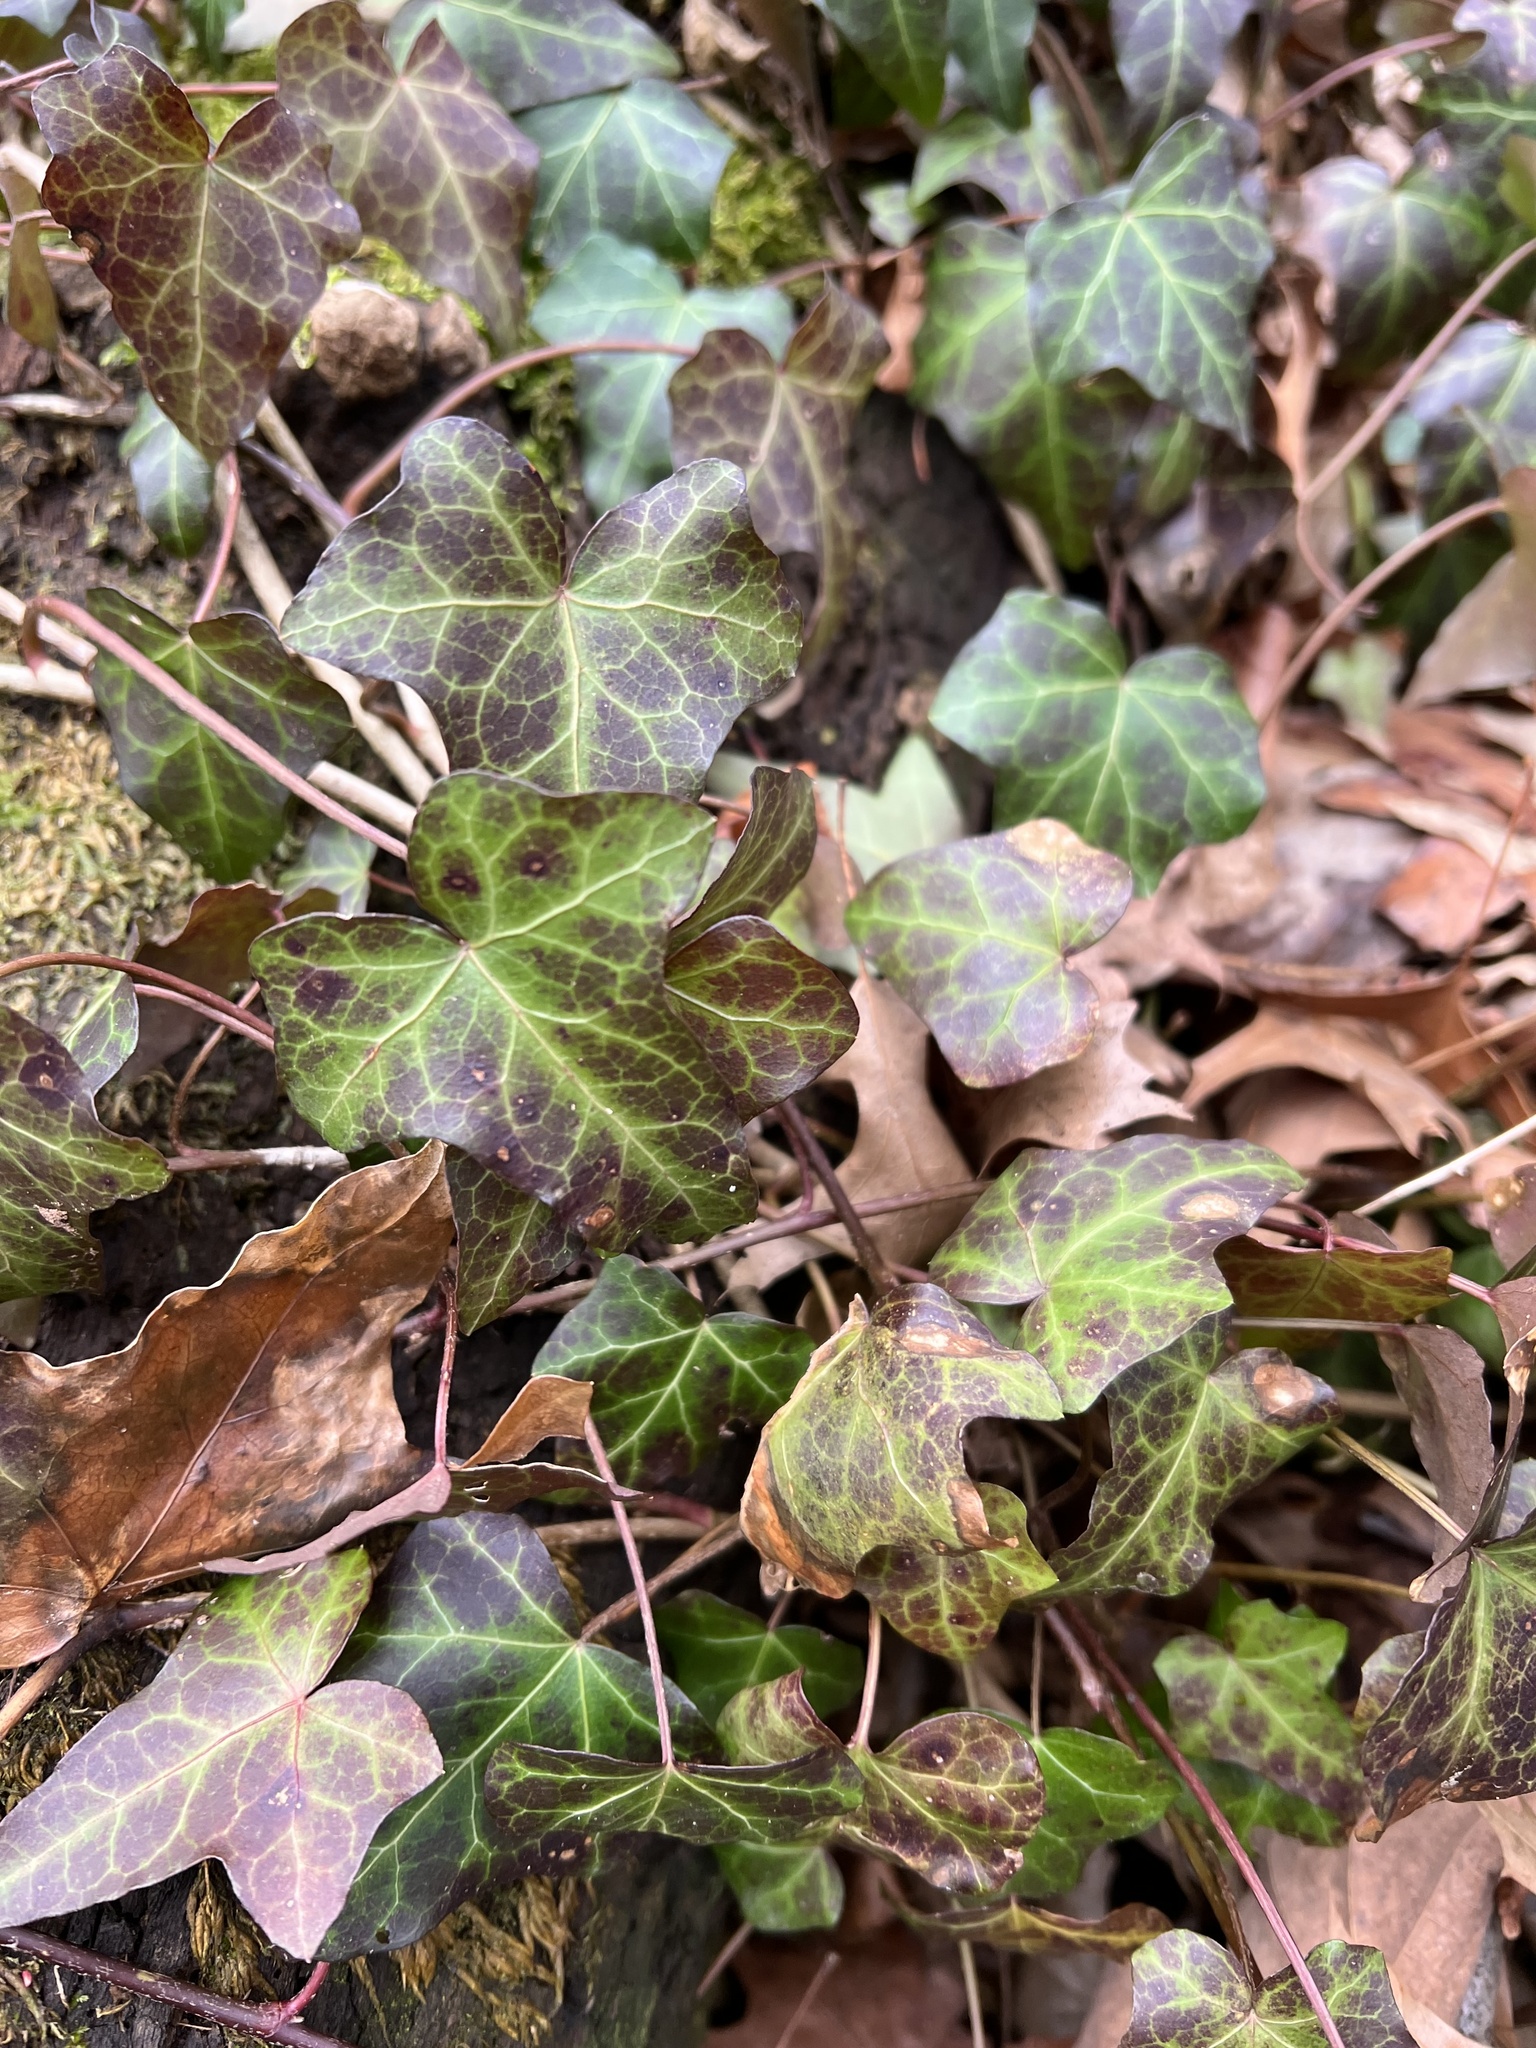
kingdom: Plantae
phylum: Tracheophyta
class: Magnoliopsida
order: Apiales
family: Araliaceae
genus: Hedera
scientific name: Hedera
